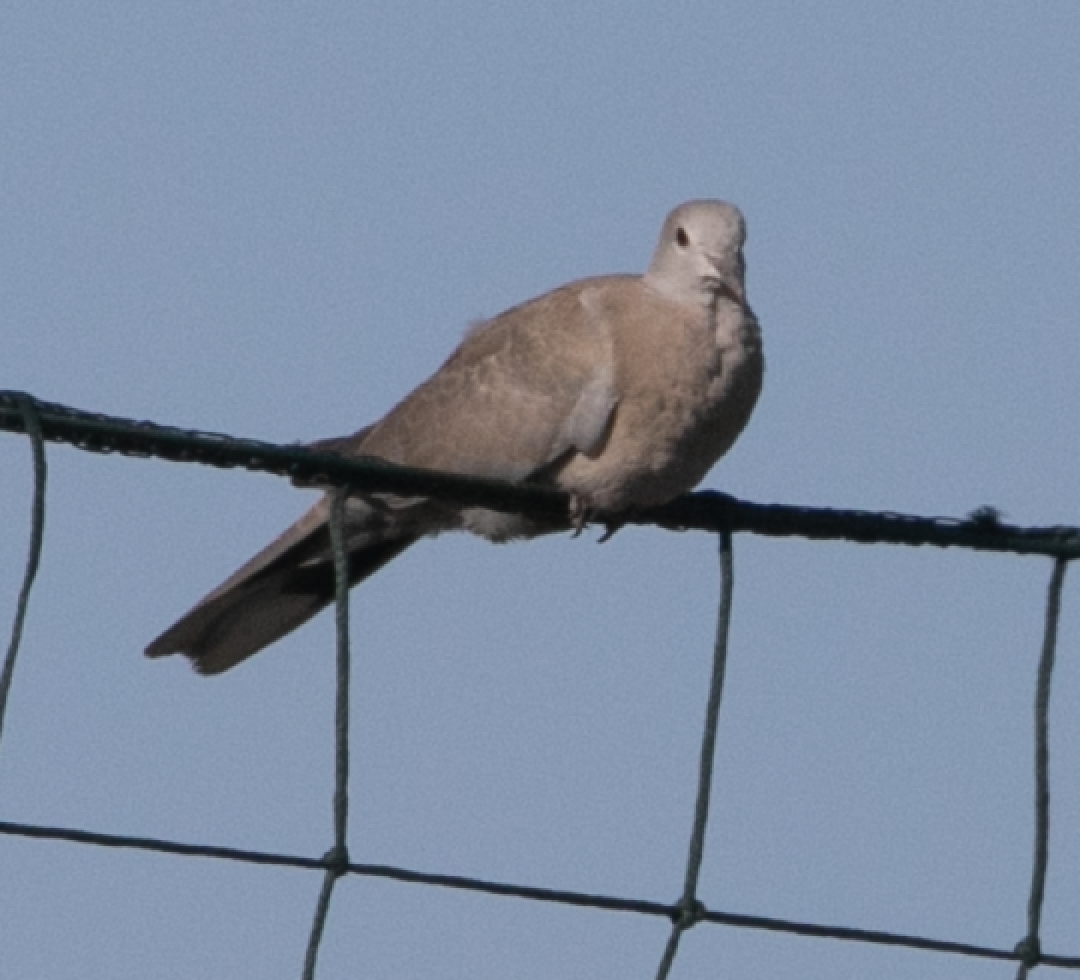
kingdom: Animalia
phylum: Chordata
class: Aves
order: Columbiformes
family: Columbidae
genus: Streptopelia
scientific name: Streptopelia decaocto
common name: Eurasian collared dove
